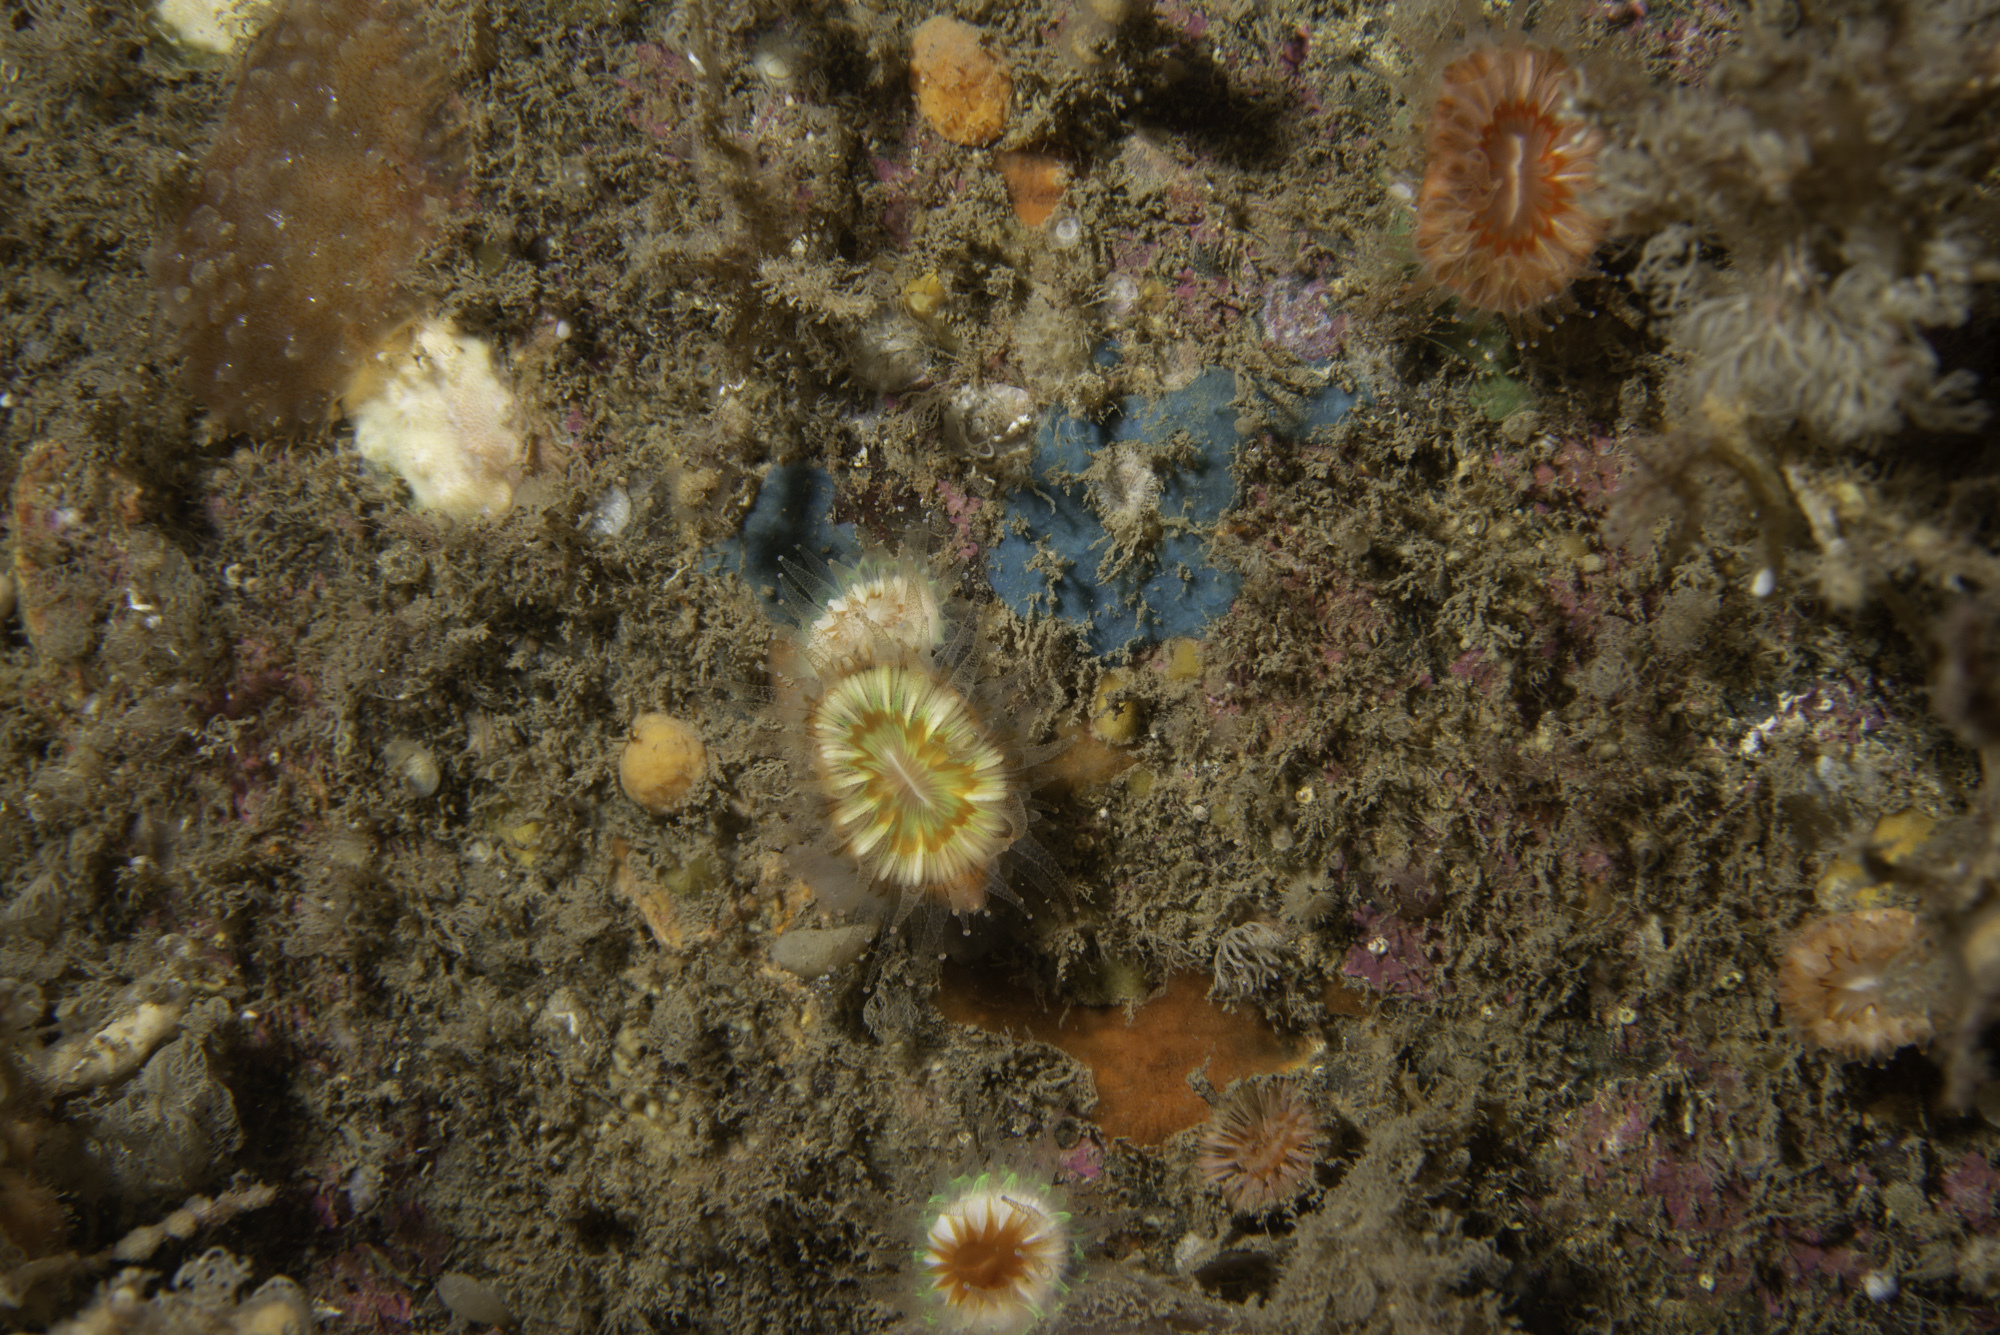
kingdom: Animalia
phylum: Cnidaria
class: Anthozoa
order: Scleractinia
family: Caryophylliidae
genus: Caryophyllia
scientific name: Caryophyllia smithii
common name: Devonshire cup coral
